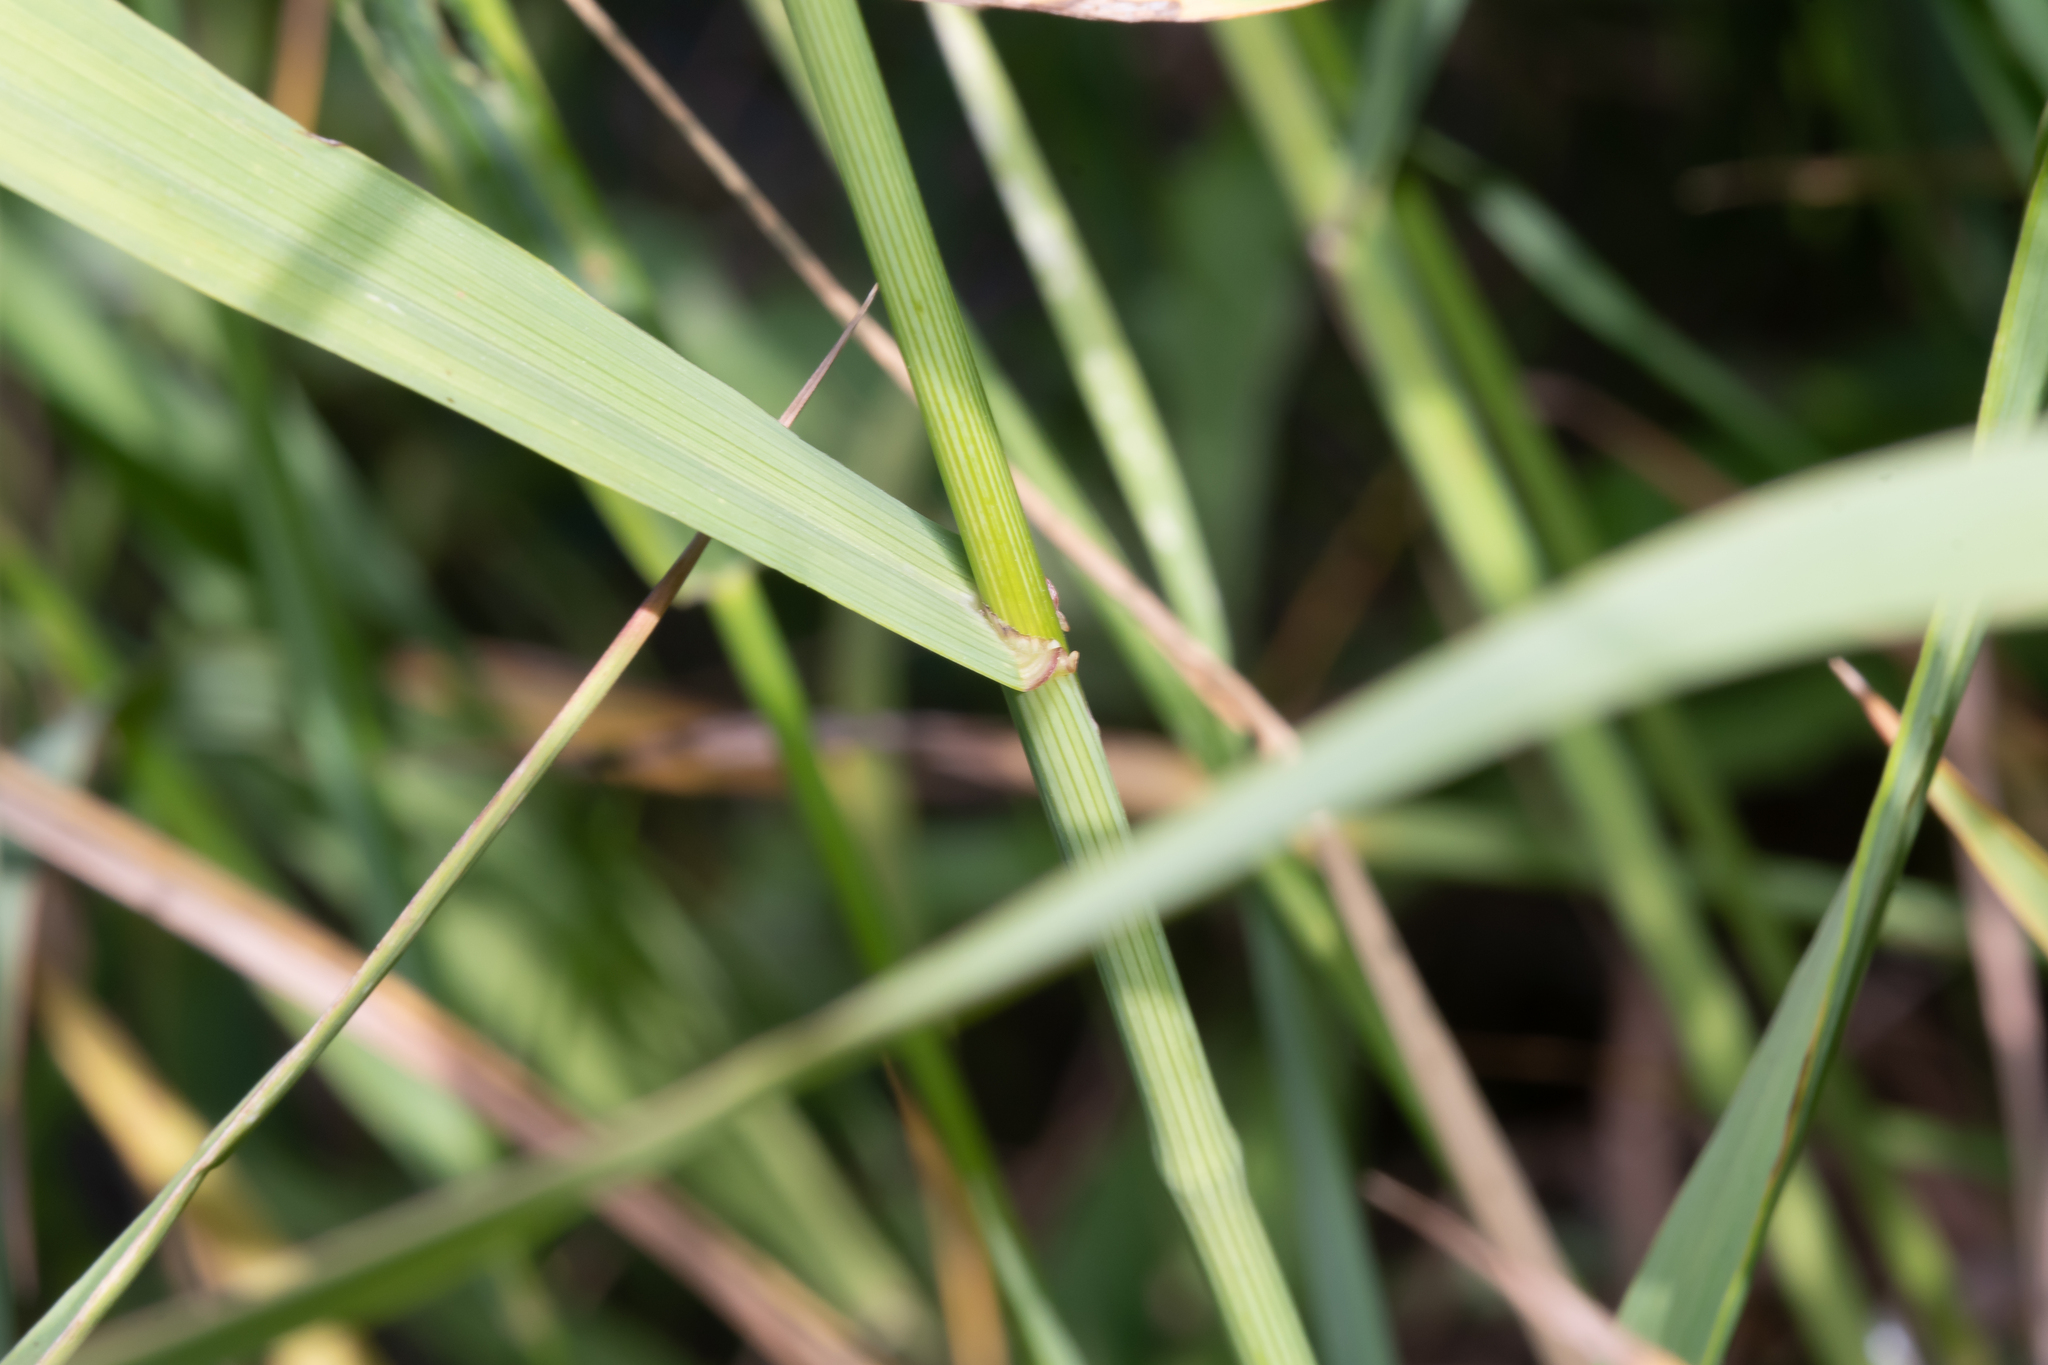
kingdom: Plantae
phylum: Tracheophyta
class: Liliopsida
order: Poales
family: Poaceae
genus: Bromus
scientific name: Bromus inermis
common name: Smooth brome
